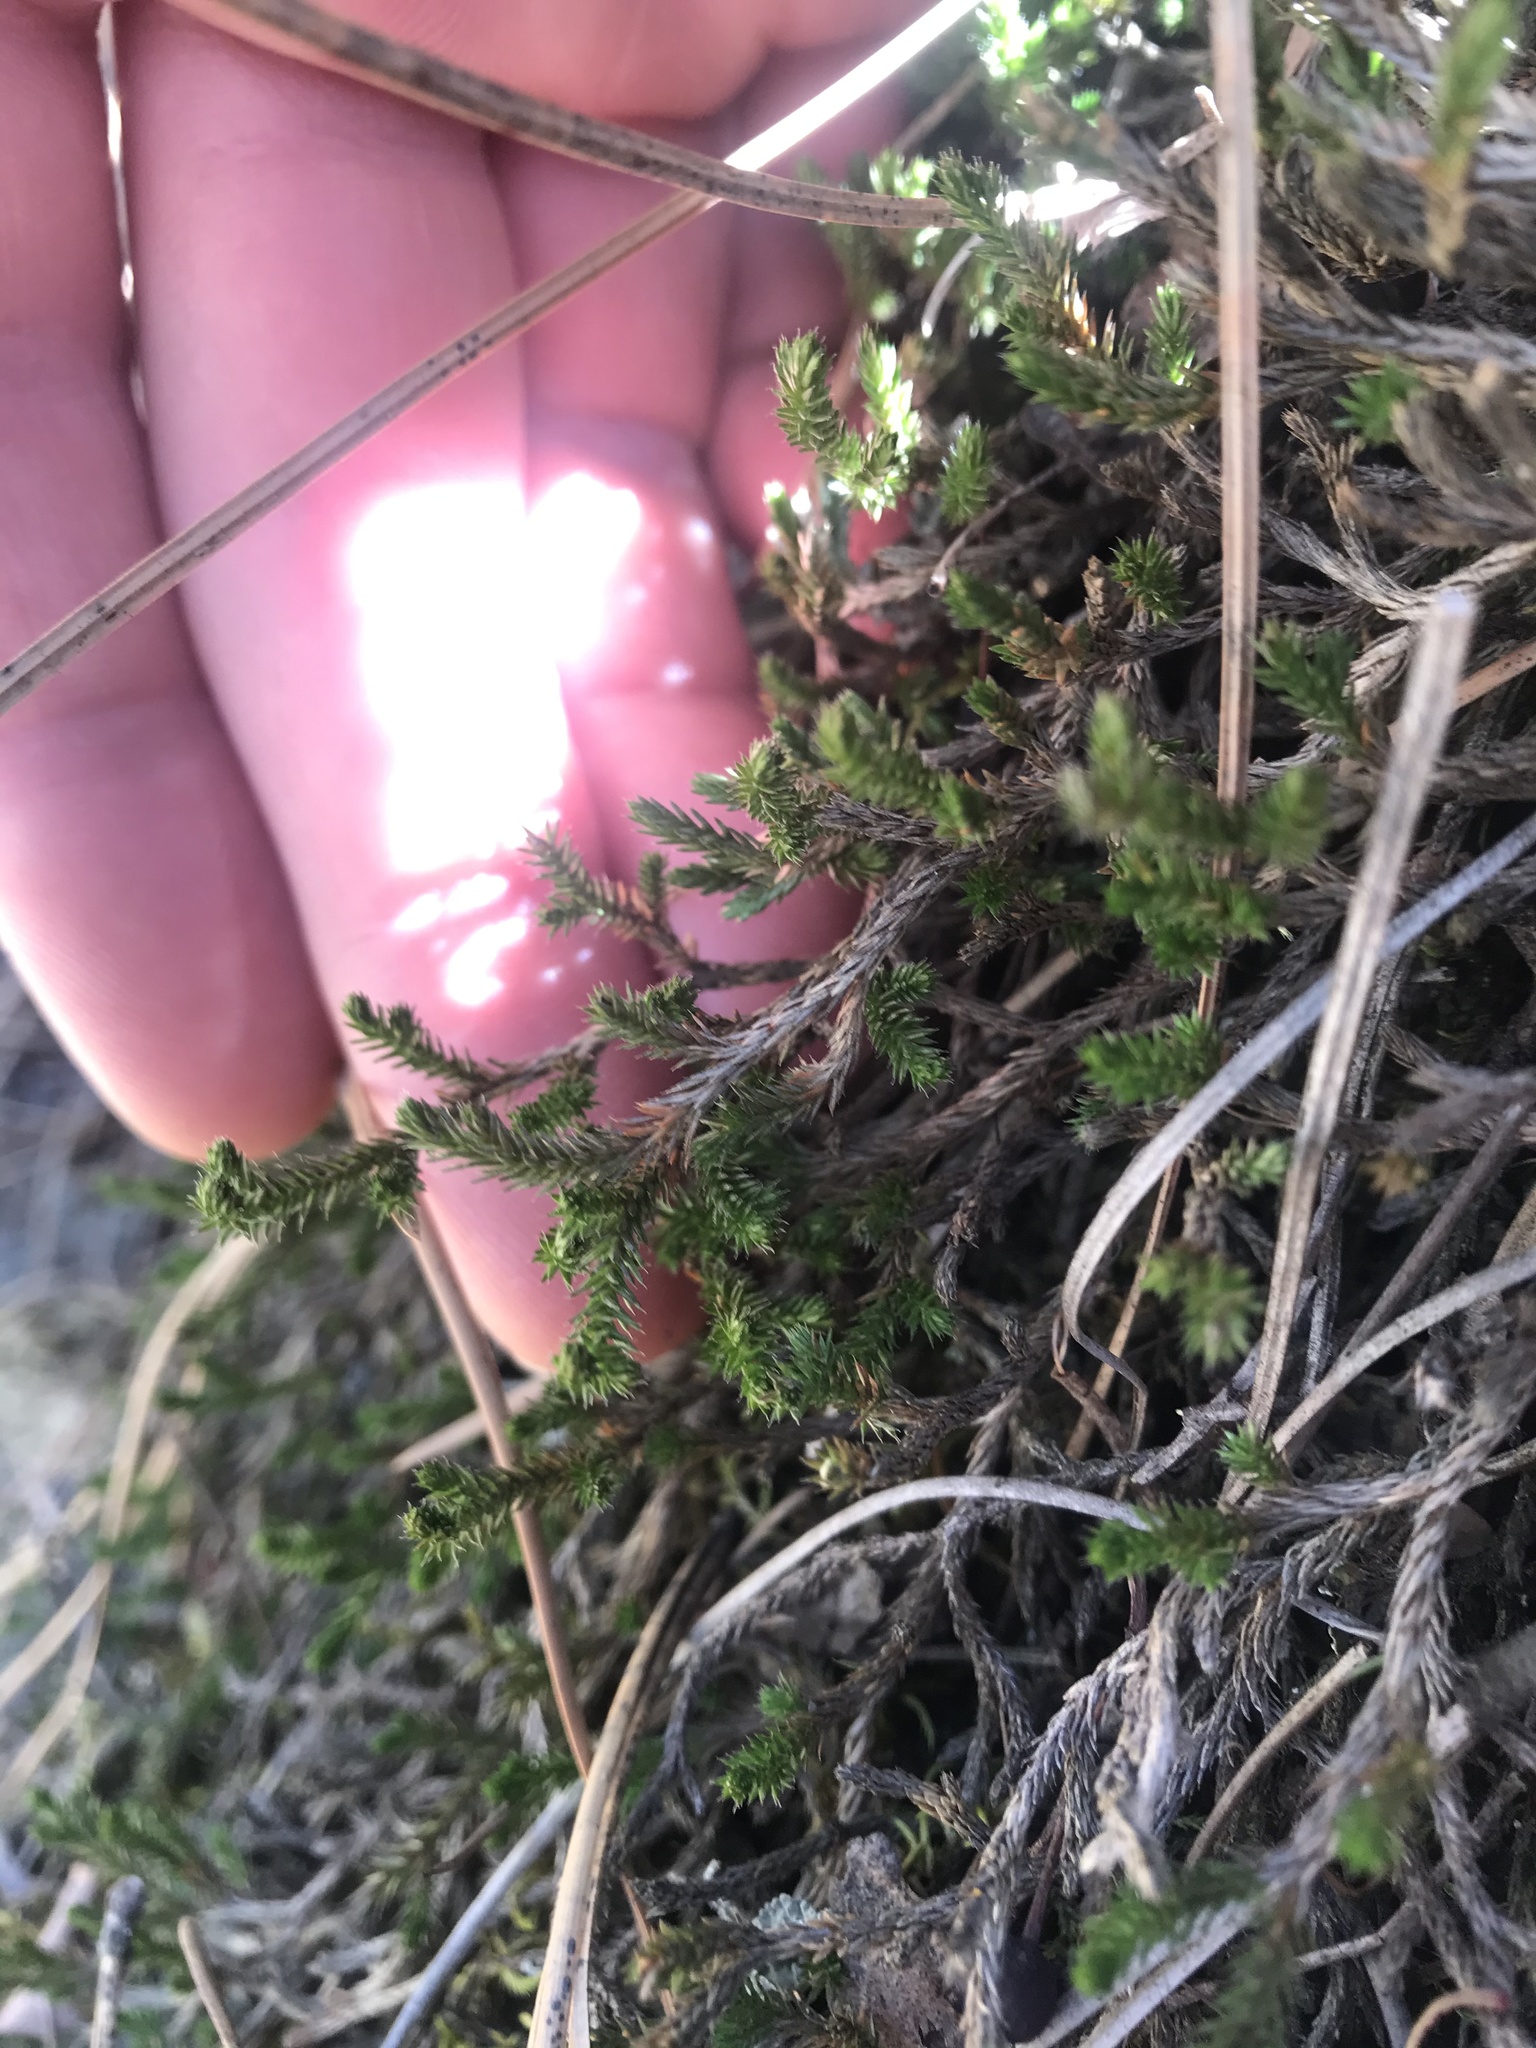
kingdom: Plantae
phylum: Tracheophyta
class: Lycopodiopsida
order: Selaginellales
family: Selaginellaceae
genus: Selaginella
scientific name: Selaginella wallacei
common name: Wallace's selaginella
